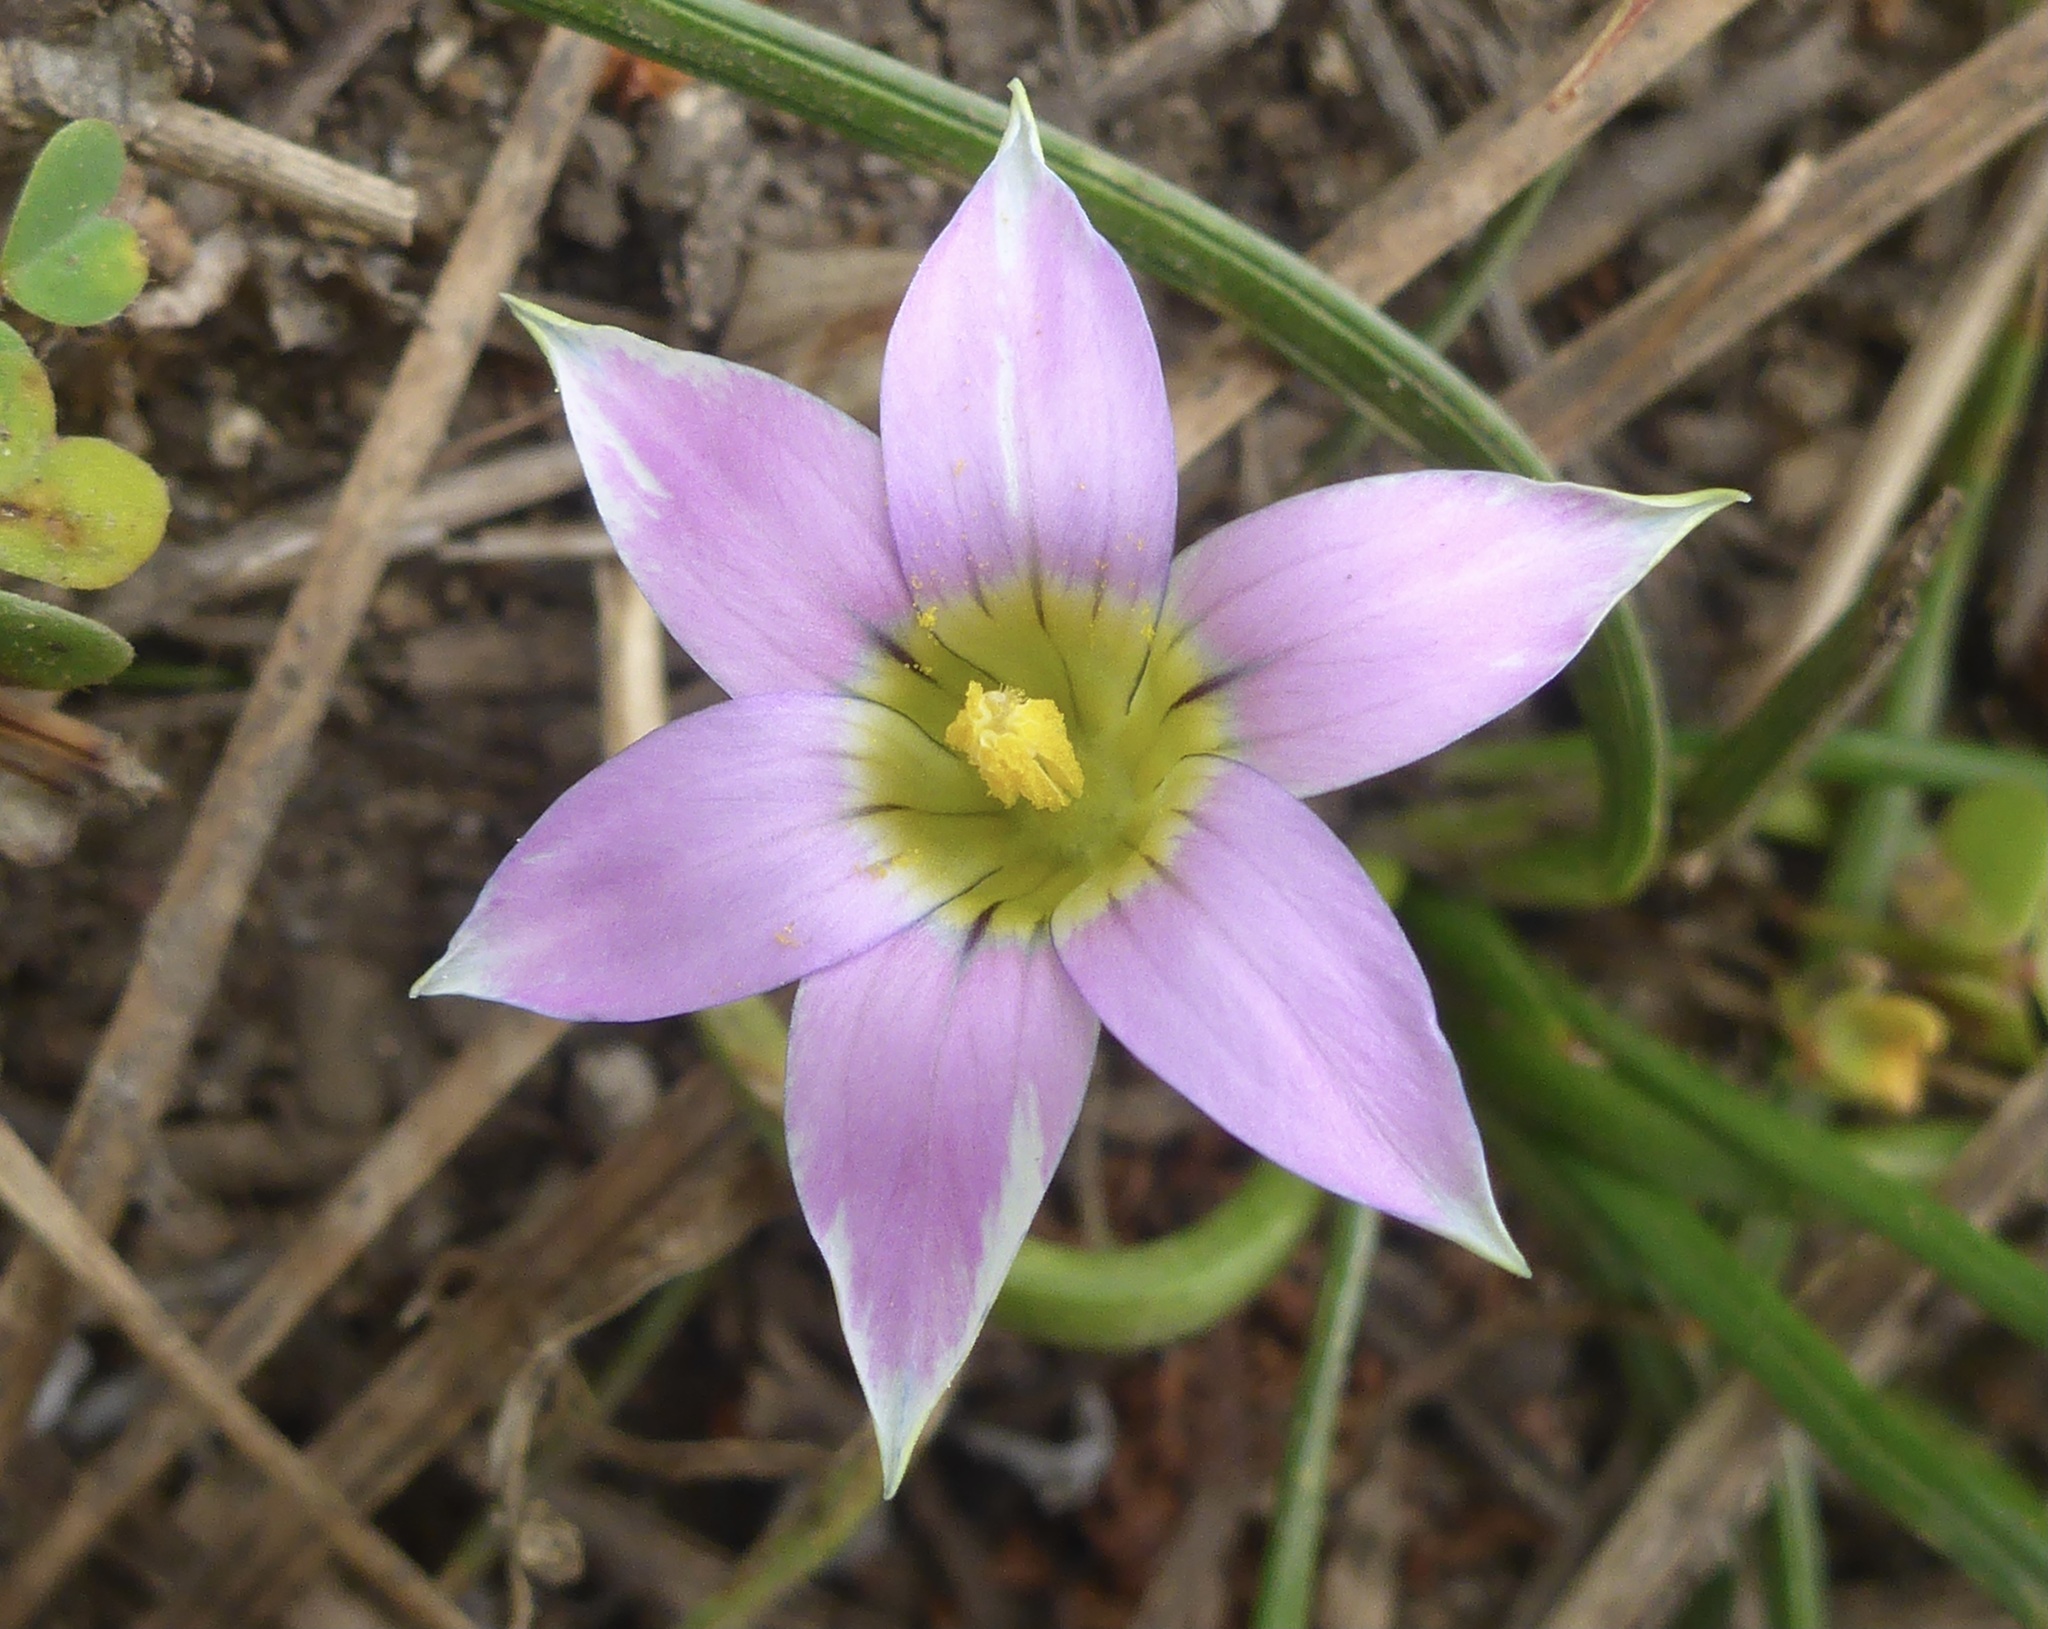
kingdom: Plantae
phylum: Tracheophyta
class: Liliopsida
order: Asparagales
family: Iridaceae
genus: Romulea
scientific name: Romulea rosea
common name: Oniongrass
